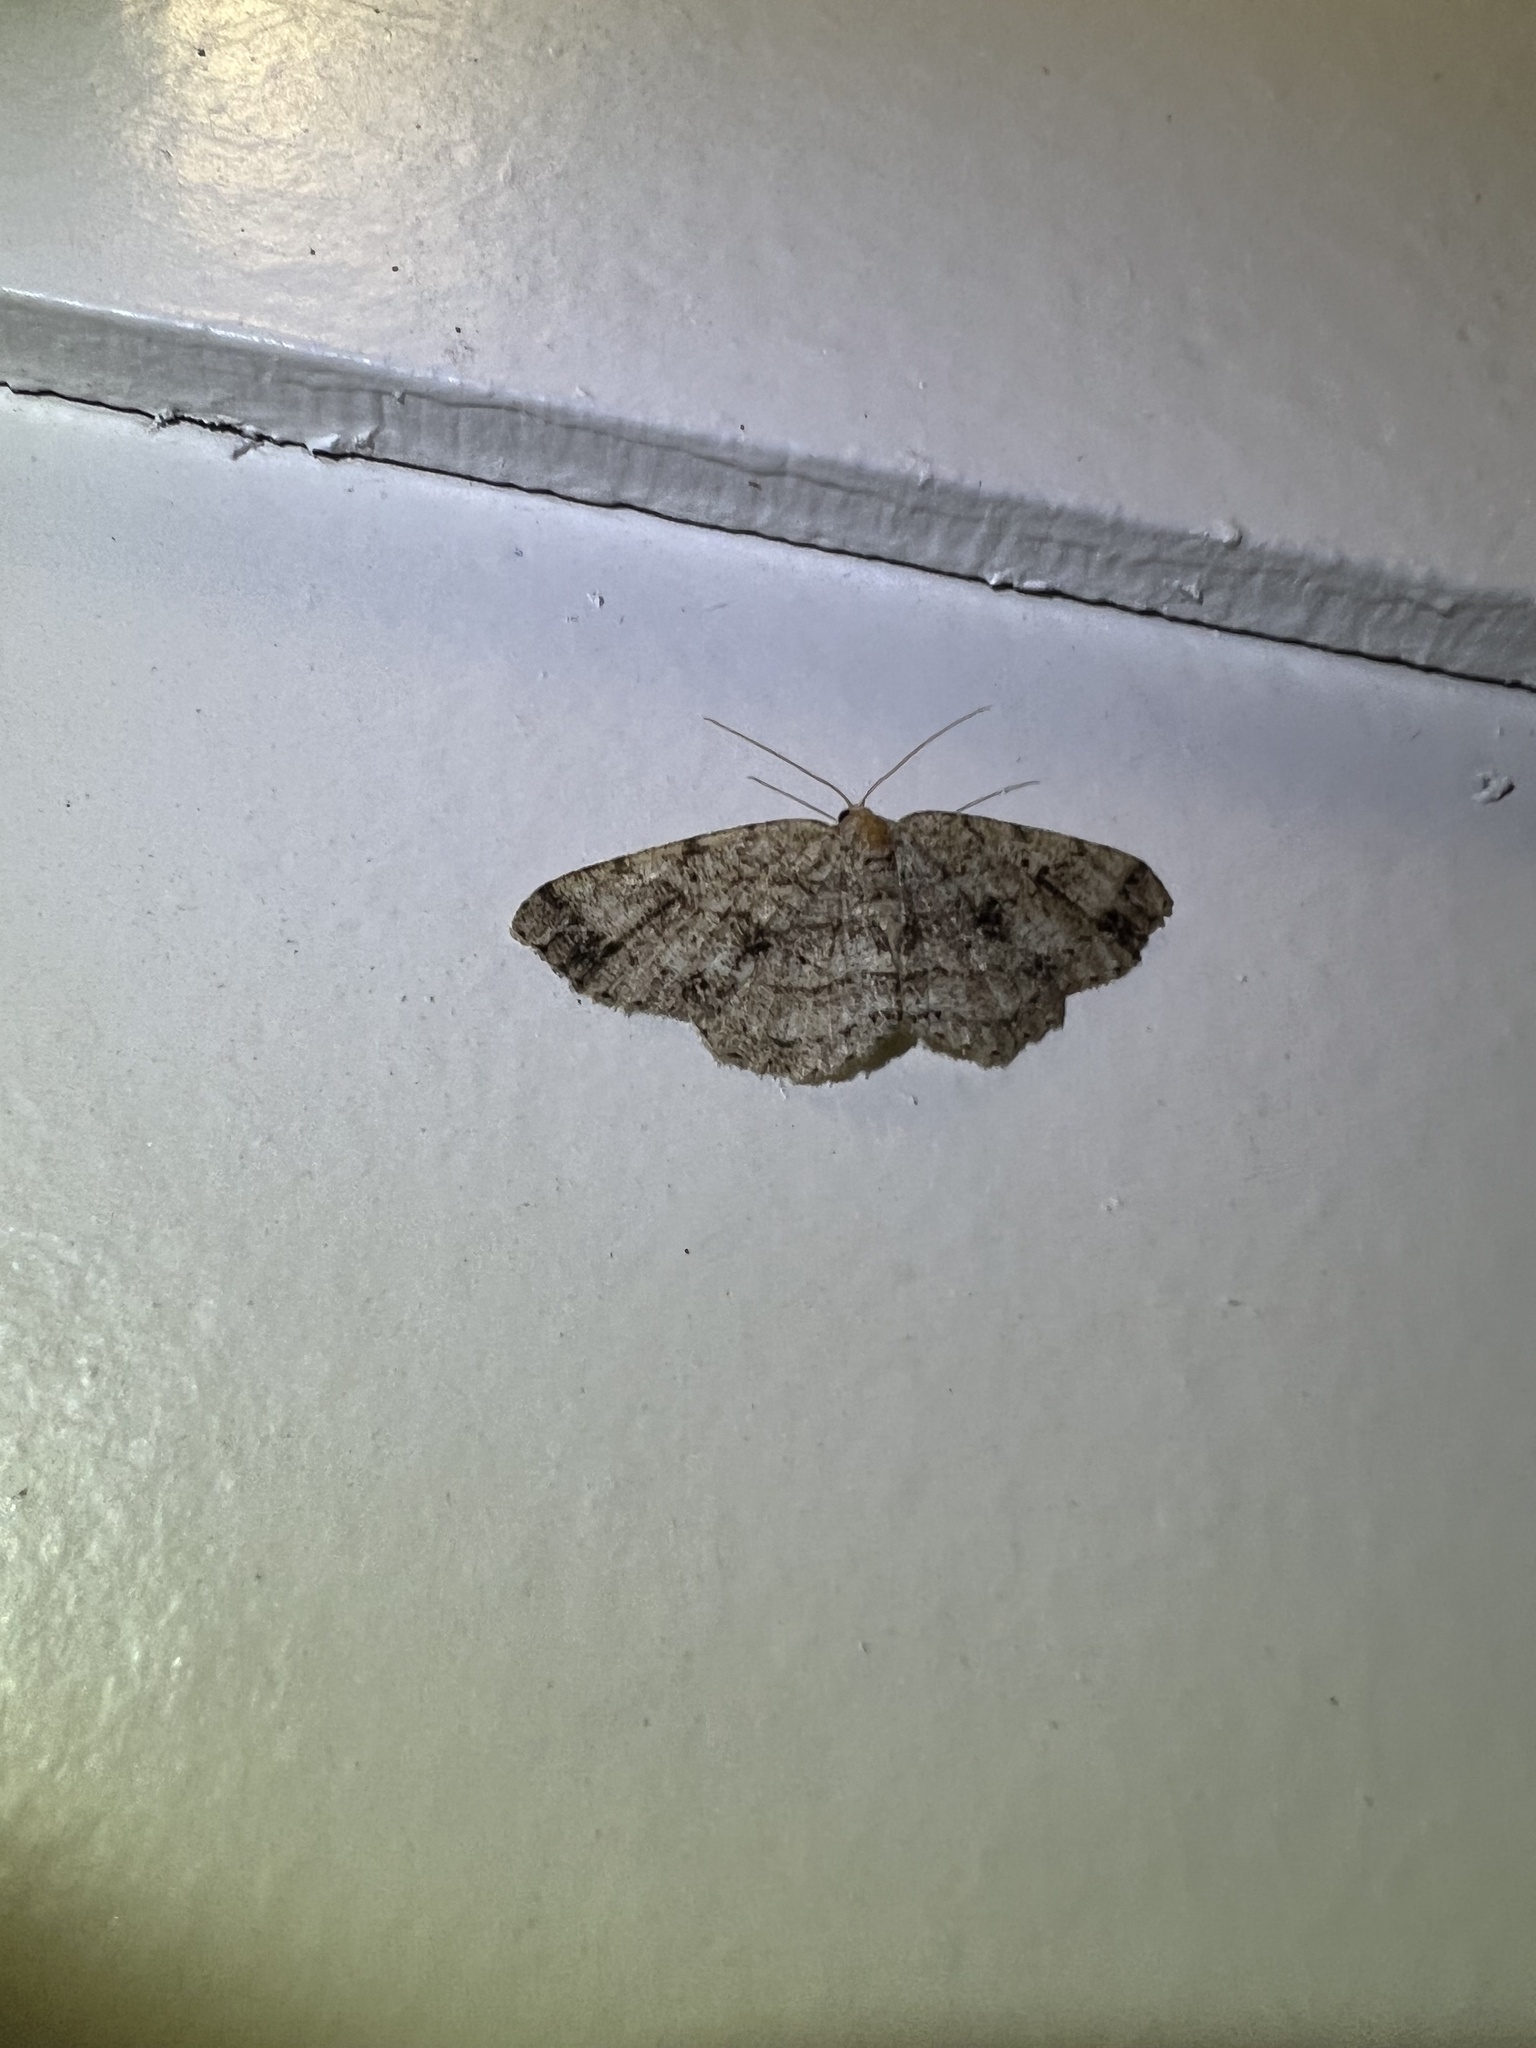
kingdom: Animalia
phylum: Arthropoda
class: Insecta
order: Lepidoptera
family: Geometridae
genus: Melanolophia
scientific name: Melanolophia canadaria
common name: Canadian melanolophia
